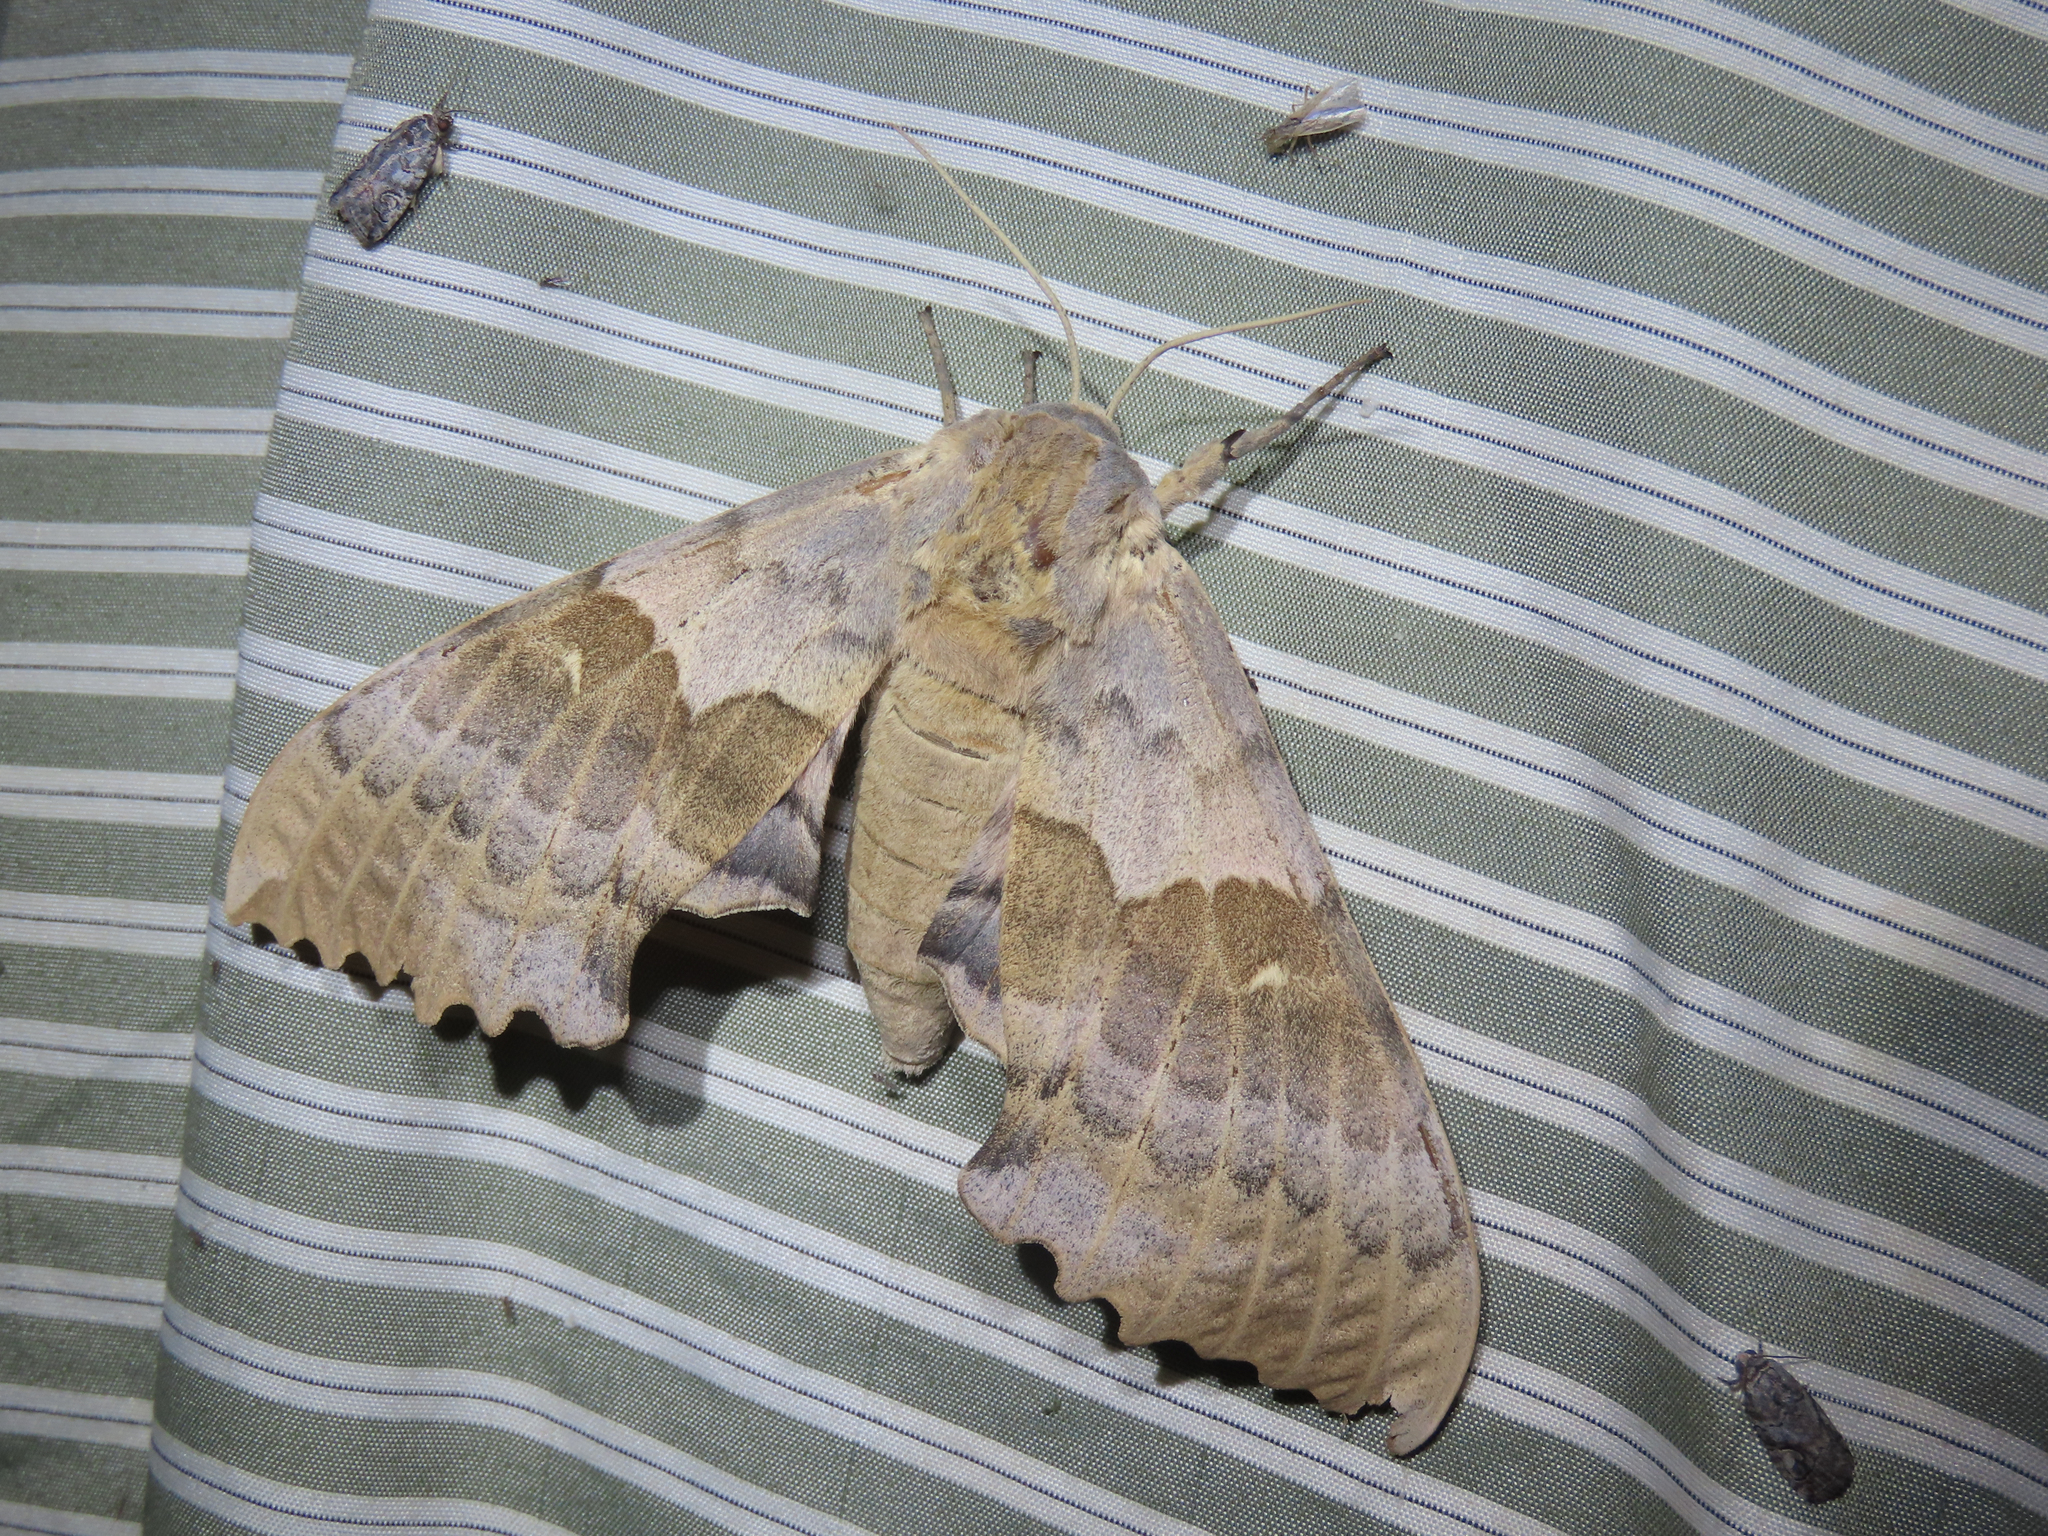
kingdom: Animalia
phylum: Arthropoda
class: Insecta
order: Lepidoptera
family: Sphingidae
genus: Pachysphinx
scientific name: Pachysphinx occidentalis
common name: Western poplar sphinx
